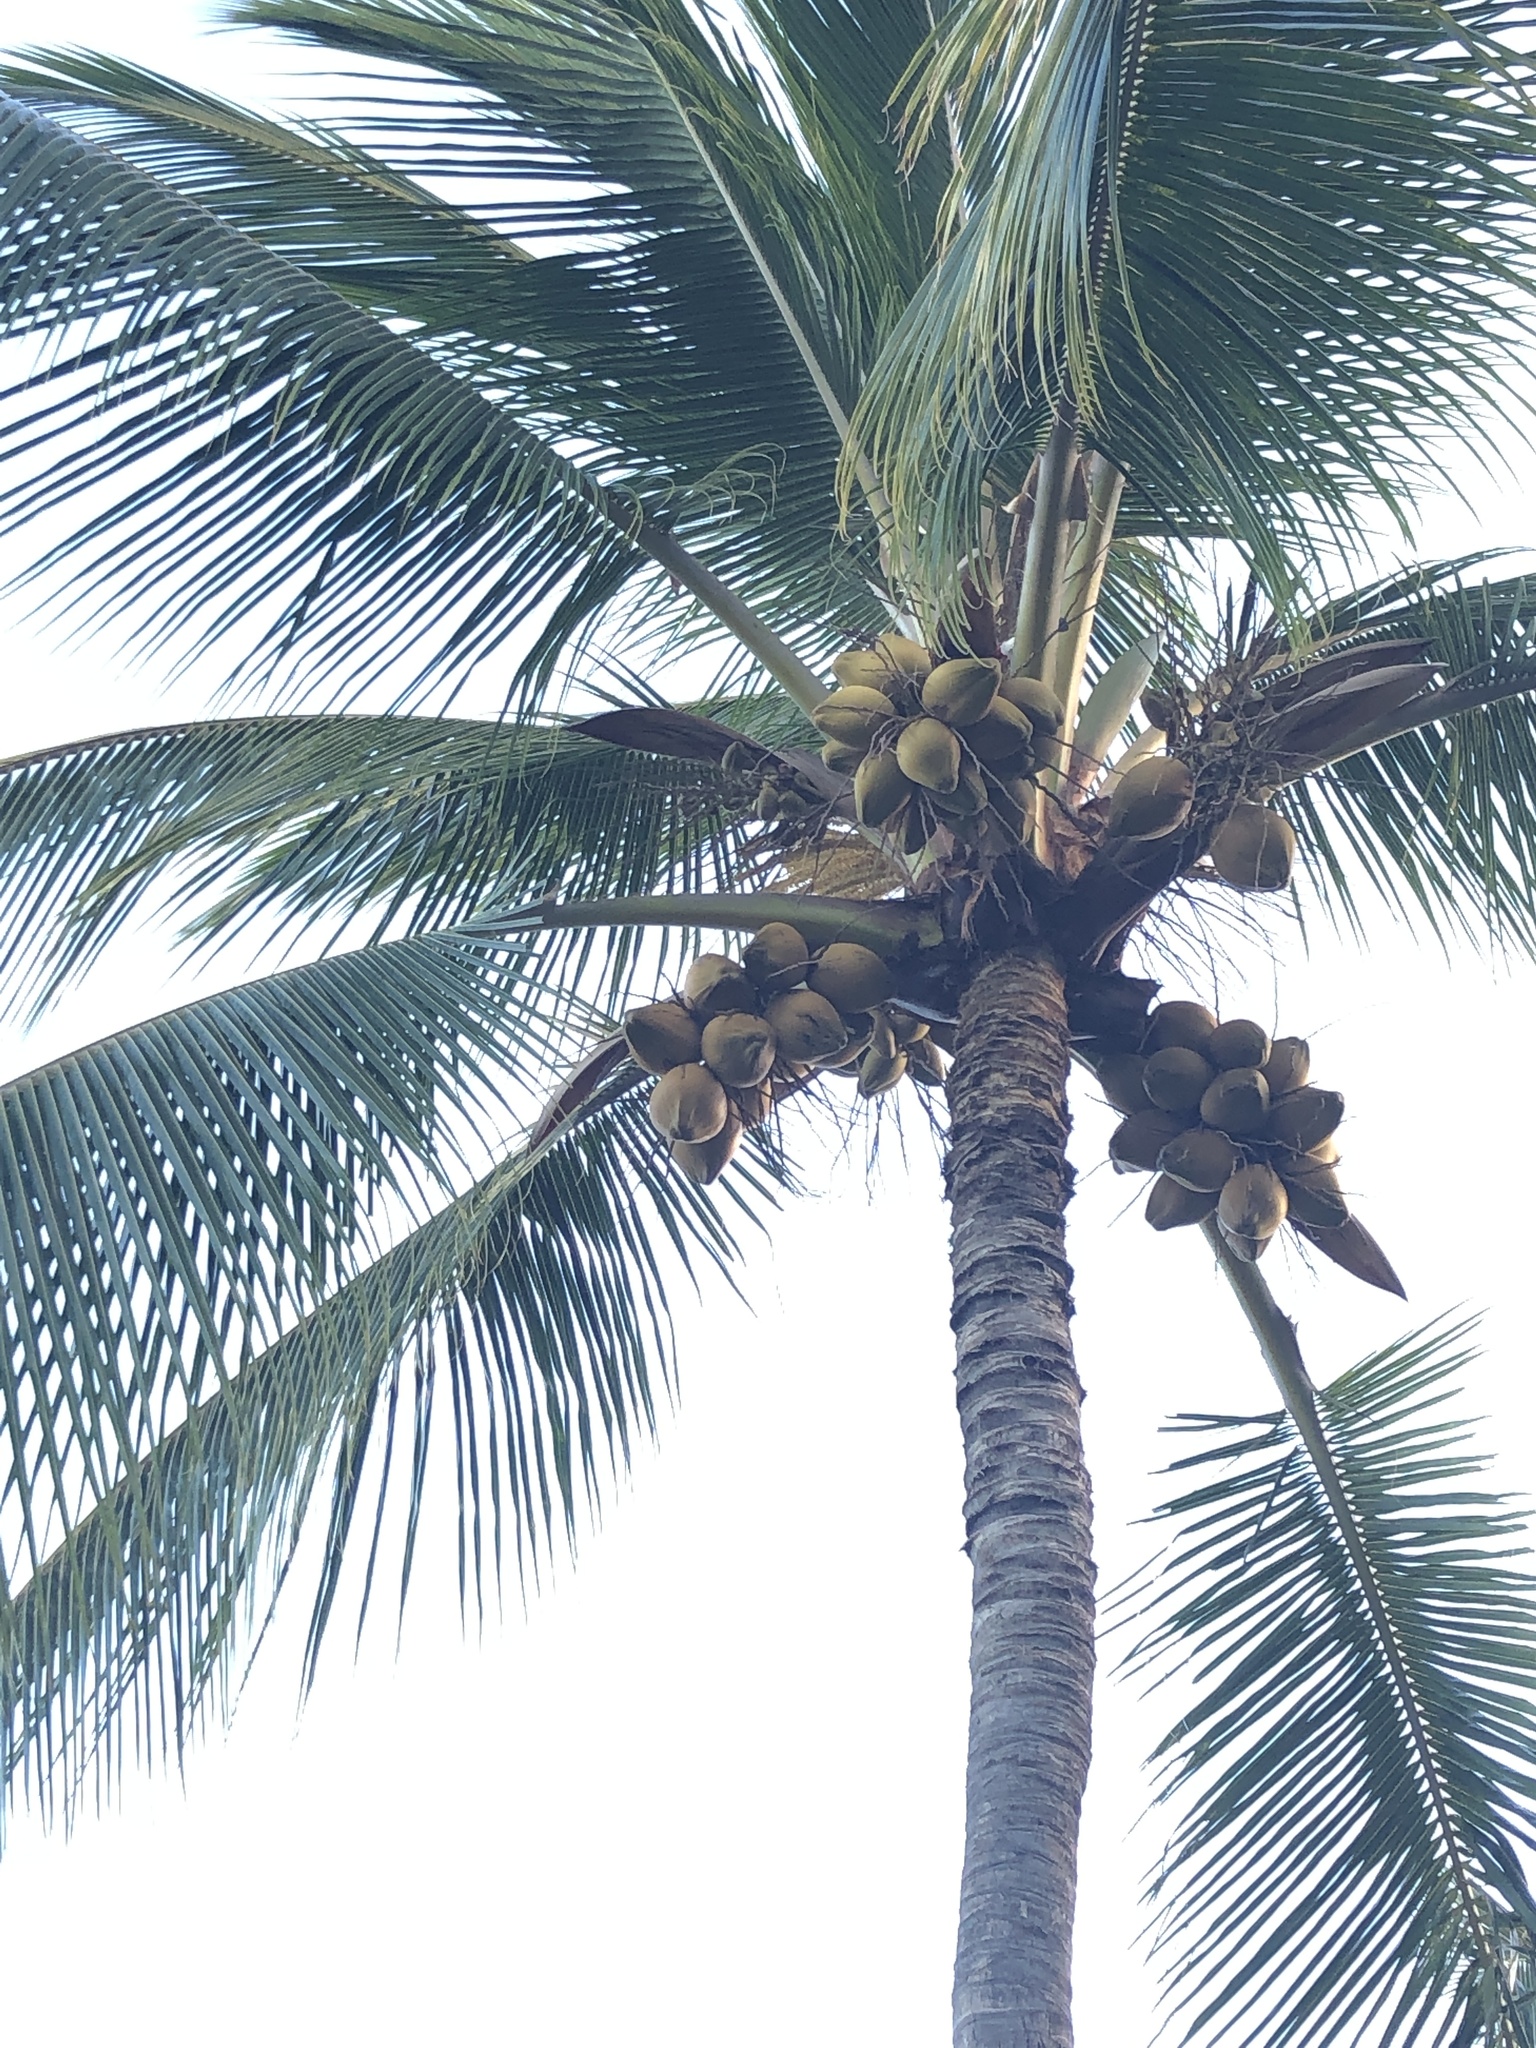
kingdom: Plantae
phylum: Tracheophyta
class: Liliopsida
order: Arecales
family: Arecaceae
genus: Cocos
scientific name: Cocos nucifera
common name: Coconut palm
